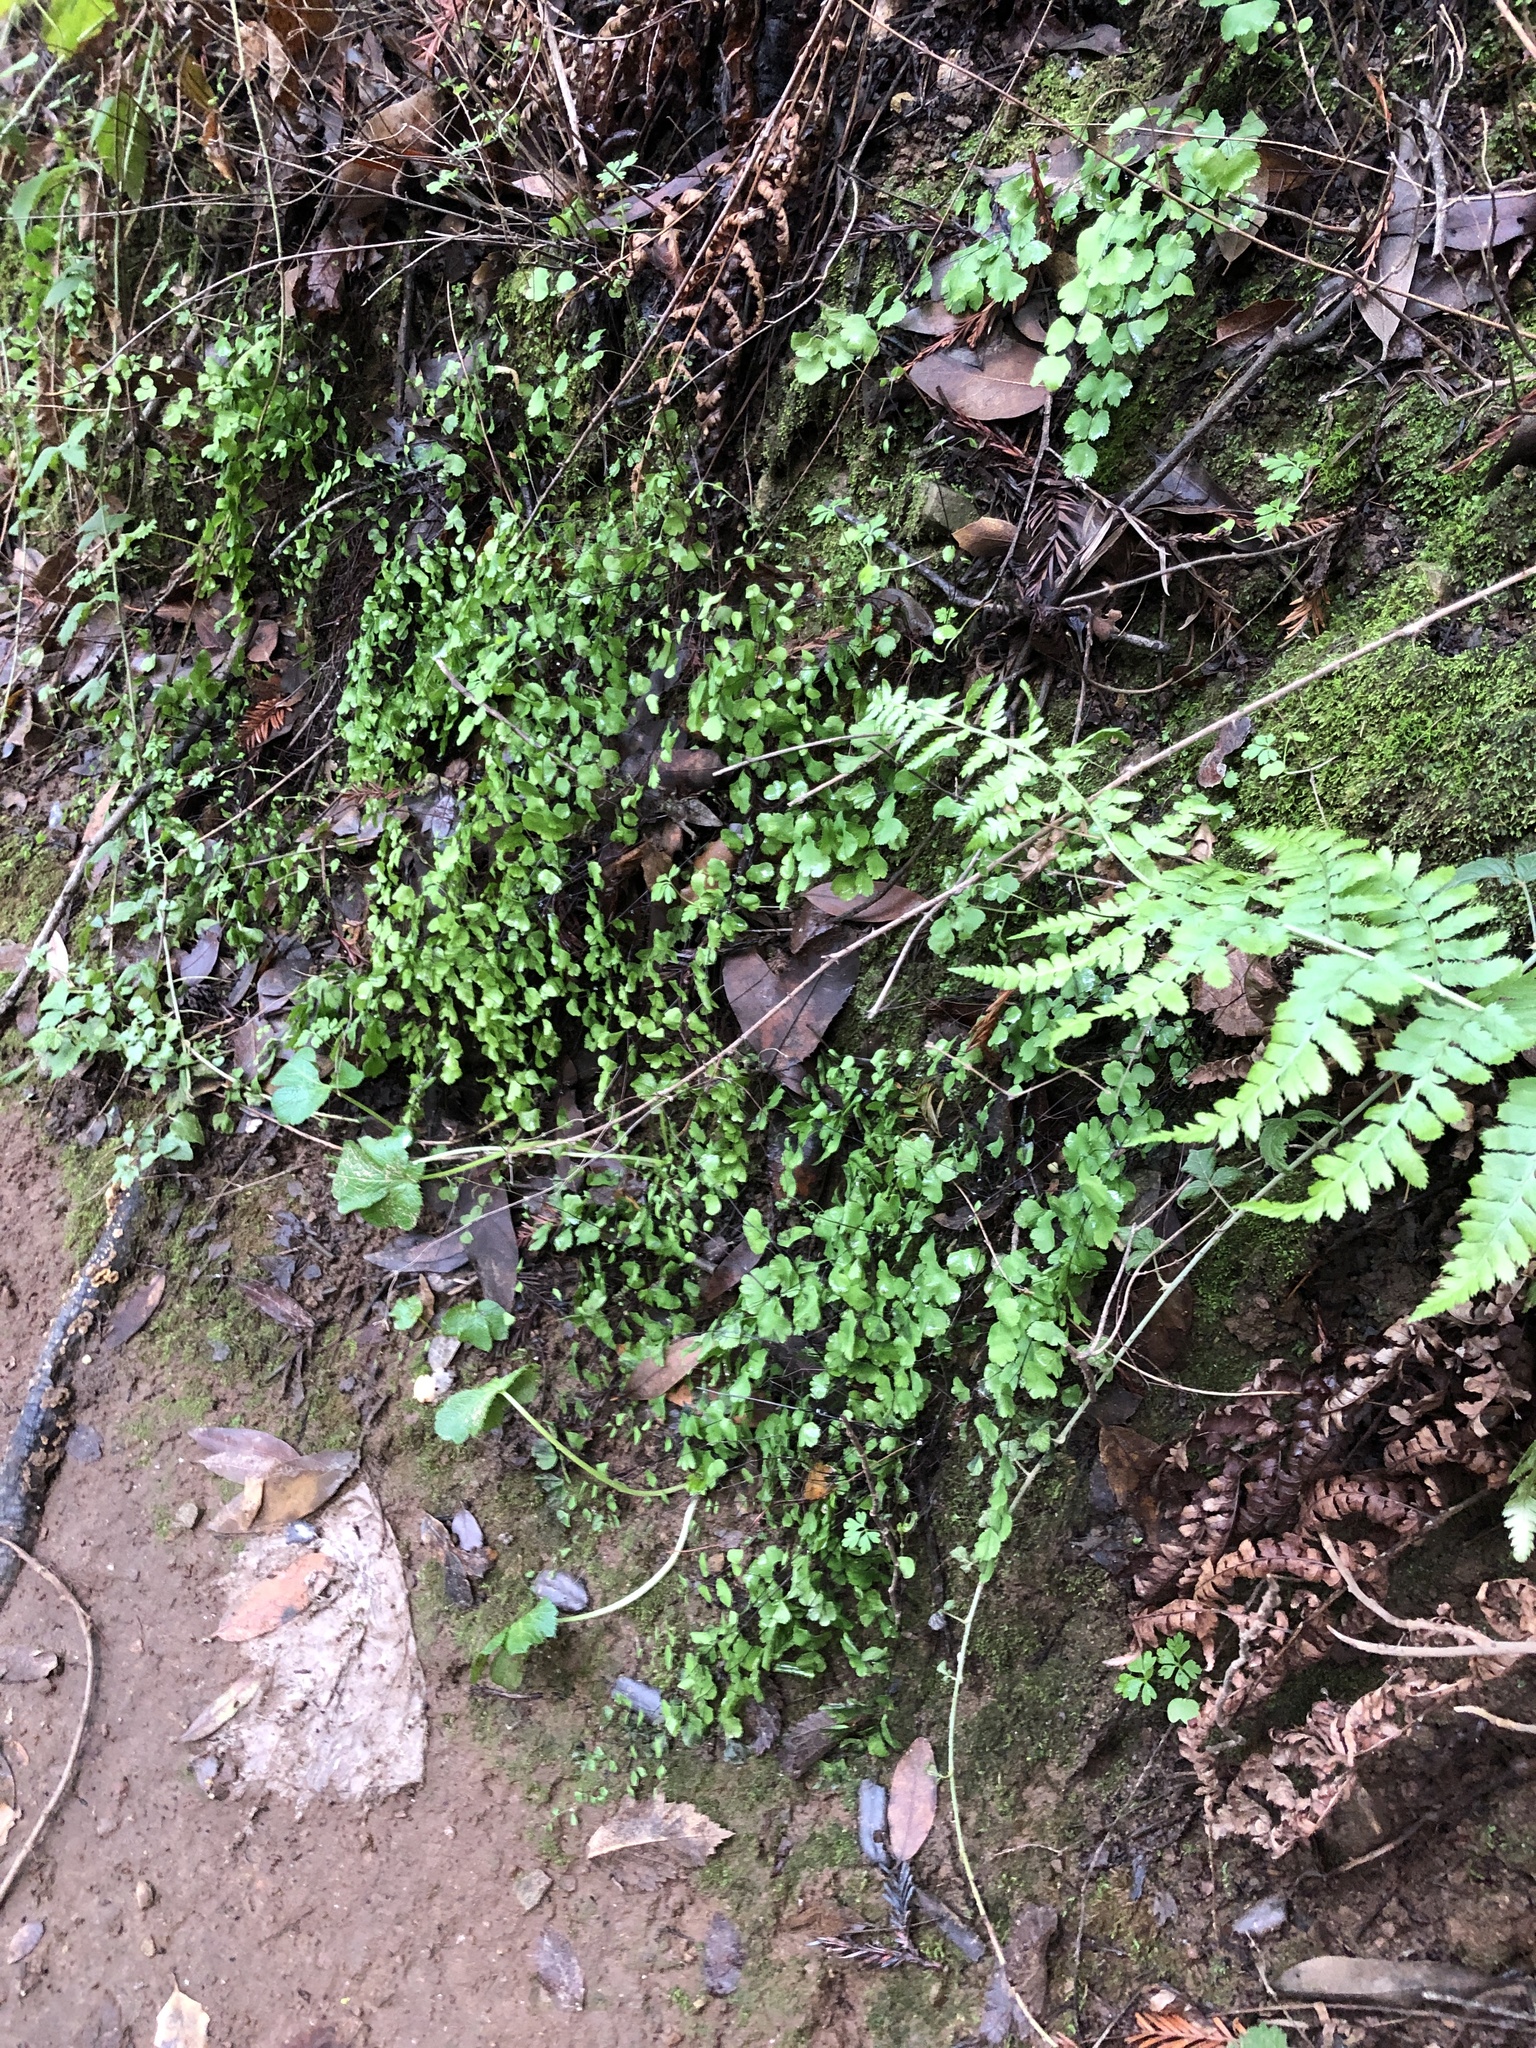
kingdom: Plantae
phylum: Tracheophyta
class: Polypodiopsida
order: Polypodiales
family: Pteridaceae
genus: Adiantum
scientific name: Adiantum jordanii
